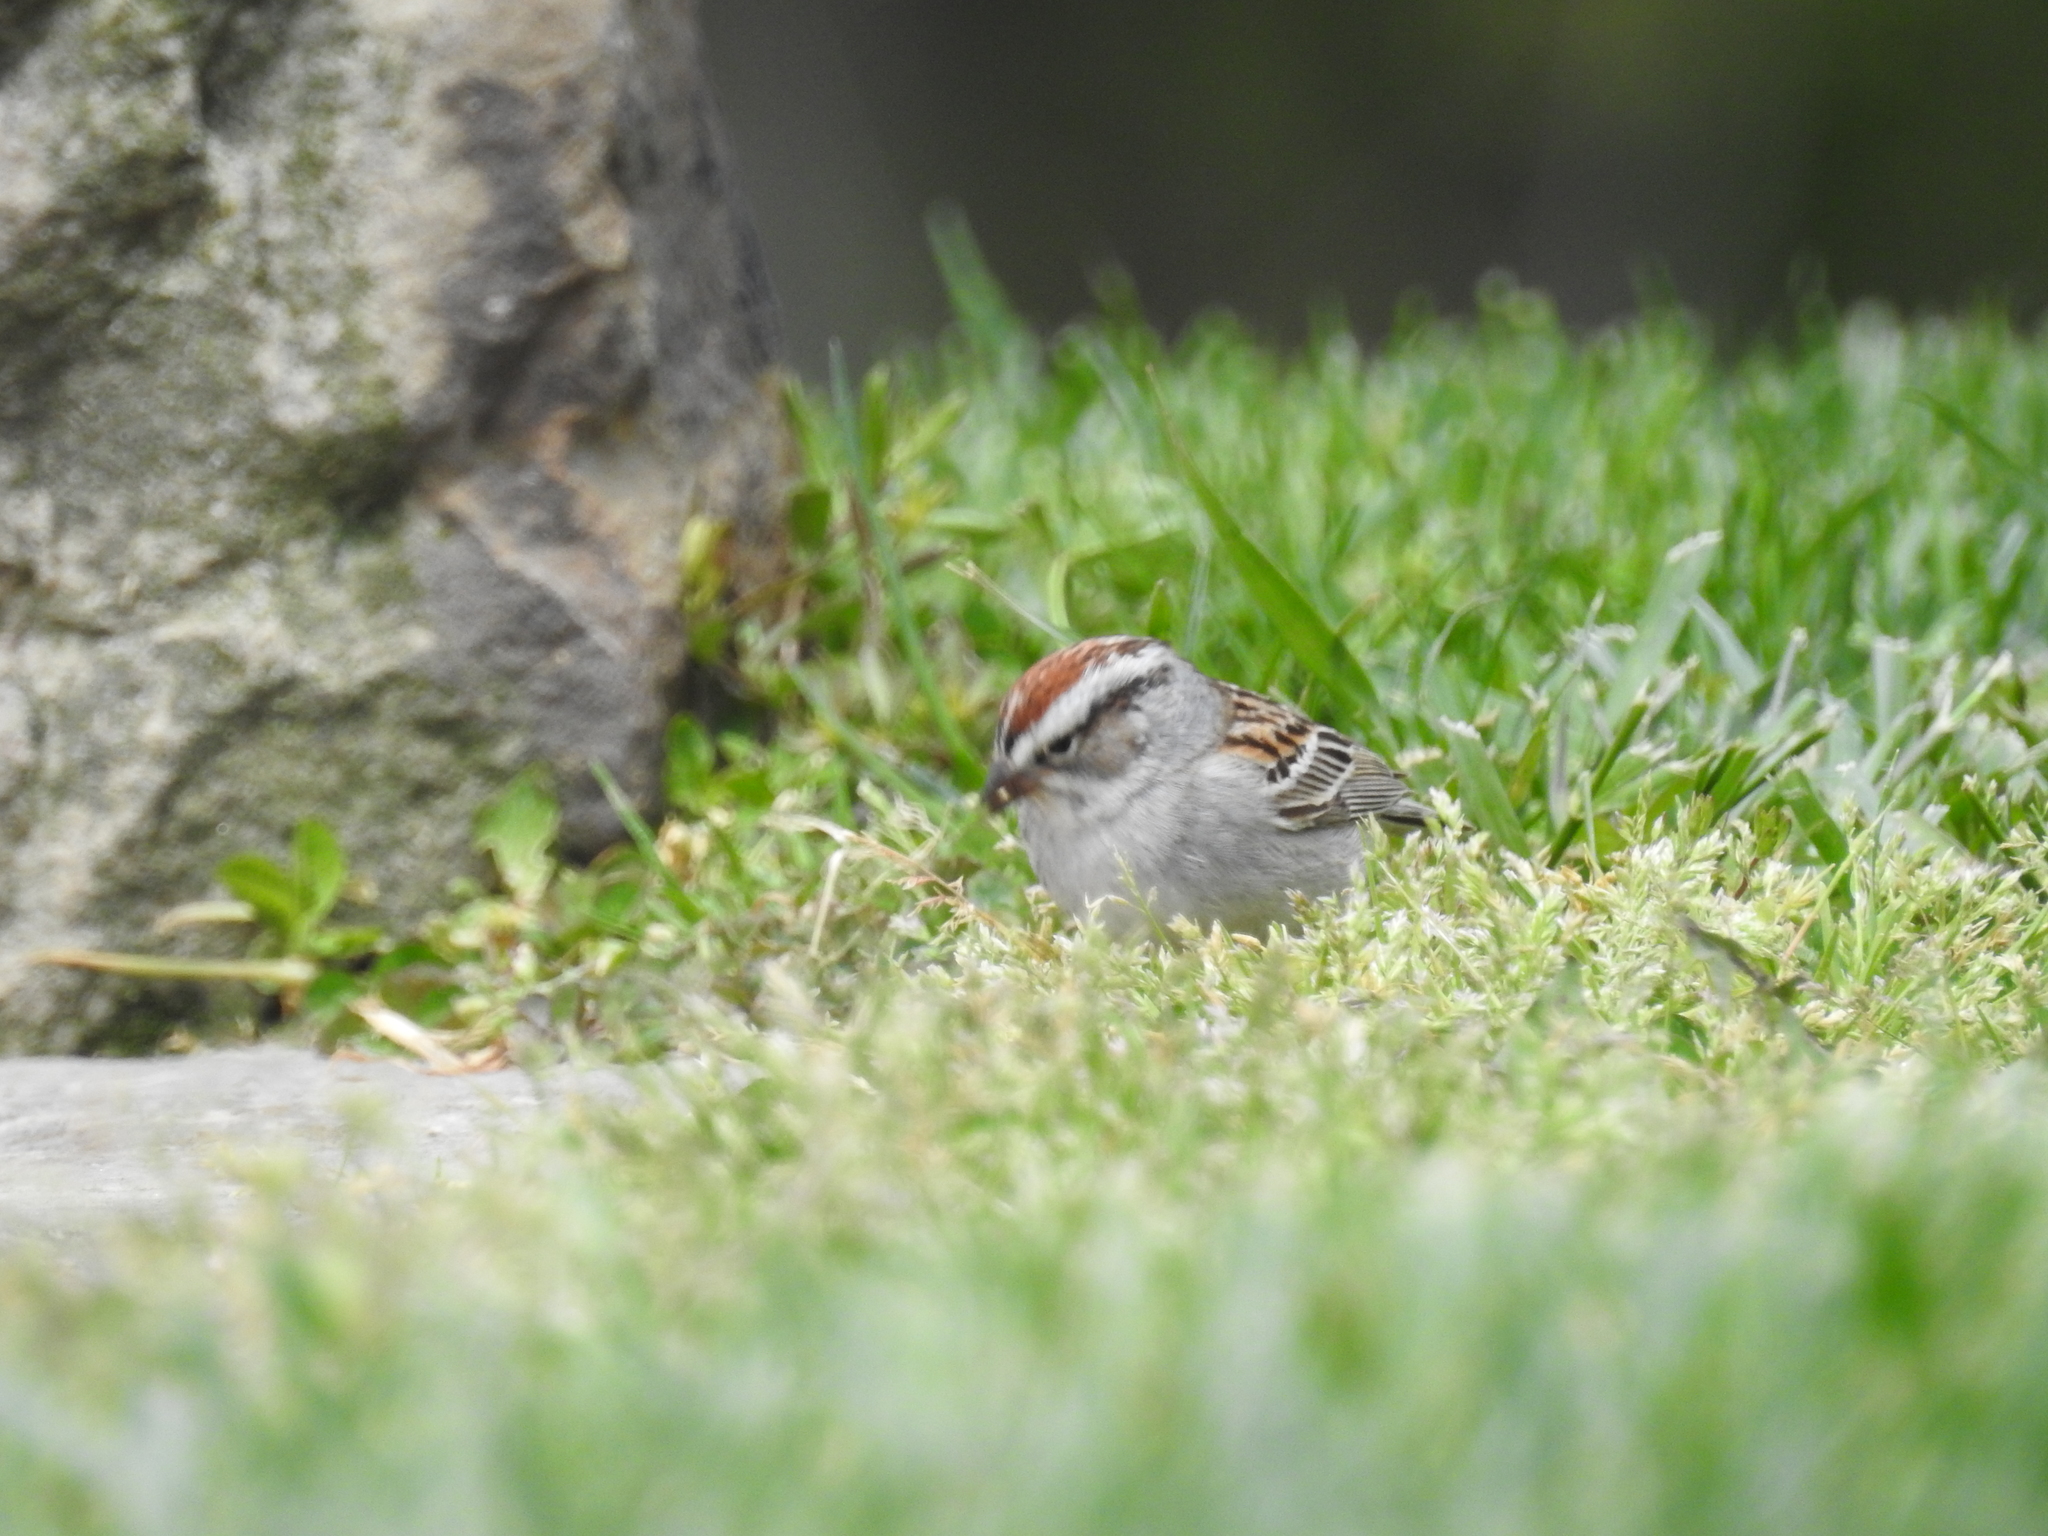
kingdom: Animalia
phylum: Chordata
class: Aves
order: Passeriformes
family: Passerellidae
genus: Spizella
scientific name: Spizella passerina
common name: Chipping sparrow
